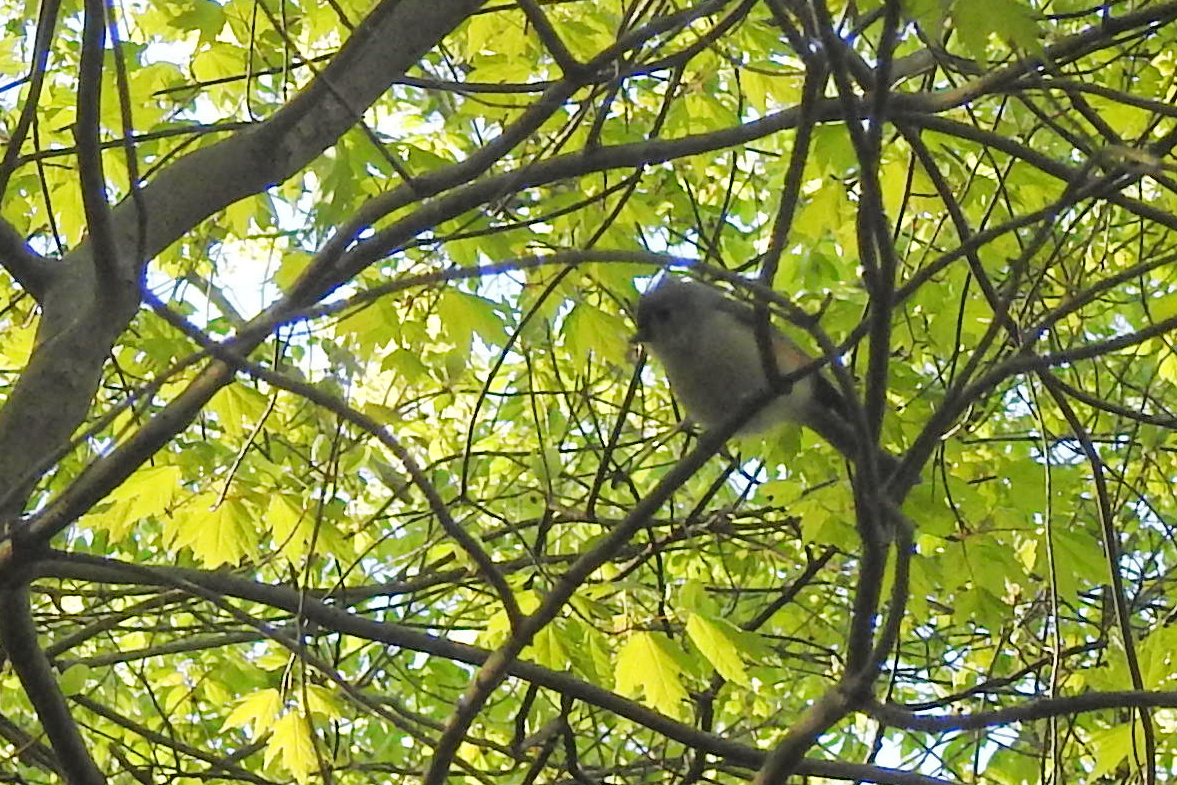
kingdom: Animalia
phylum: Chordata
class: Aves
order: Passeriformes
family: Paridae
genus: Baeolophus
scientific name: Baeolophus bicolor
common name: Tufted titmouse
